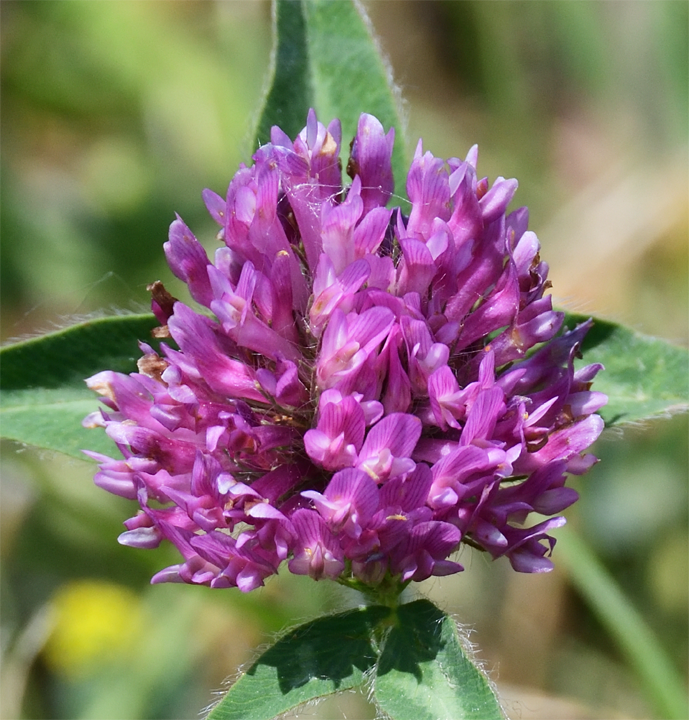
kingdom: Plantae
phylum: Tracheophyta
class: Magnoliopsida
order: Fabales
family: Fabaceae
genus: Trifolium
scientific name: Trifolium pratense
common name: Red clover
